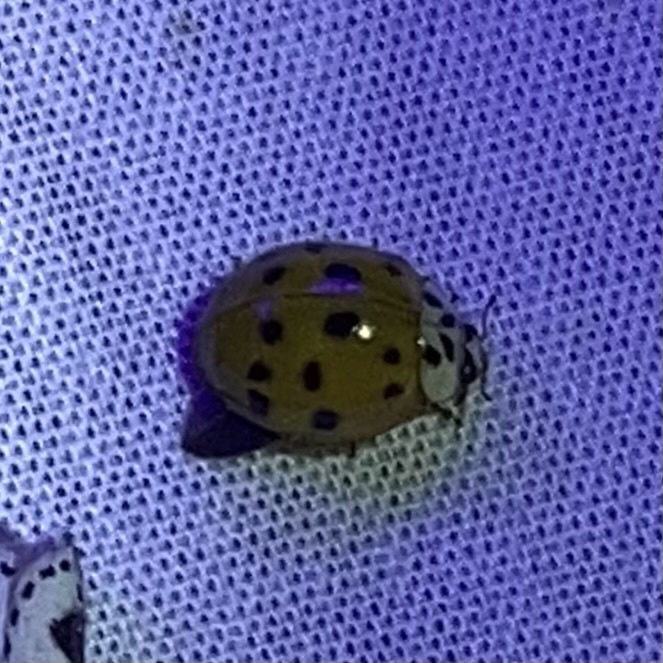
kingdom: Animalia
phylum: Arthropoda
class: Insecta
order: Coleoptera
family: Coccinellidae
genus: Harmonia
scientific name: Harmonia axyridis
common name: Harlequin ladybird
